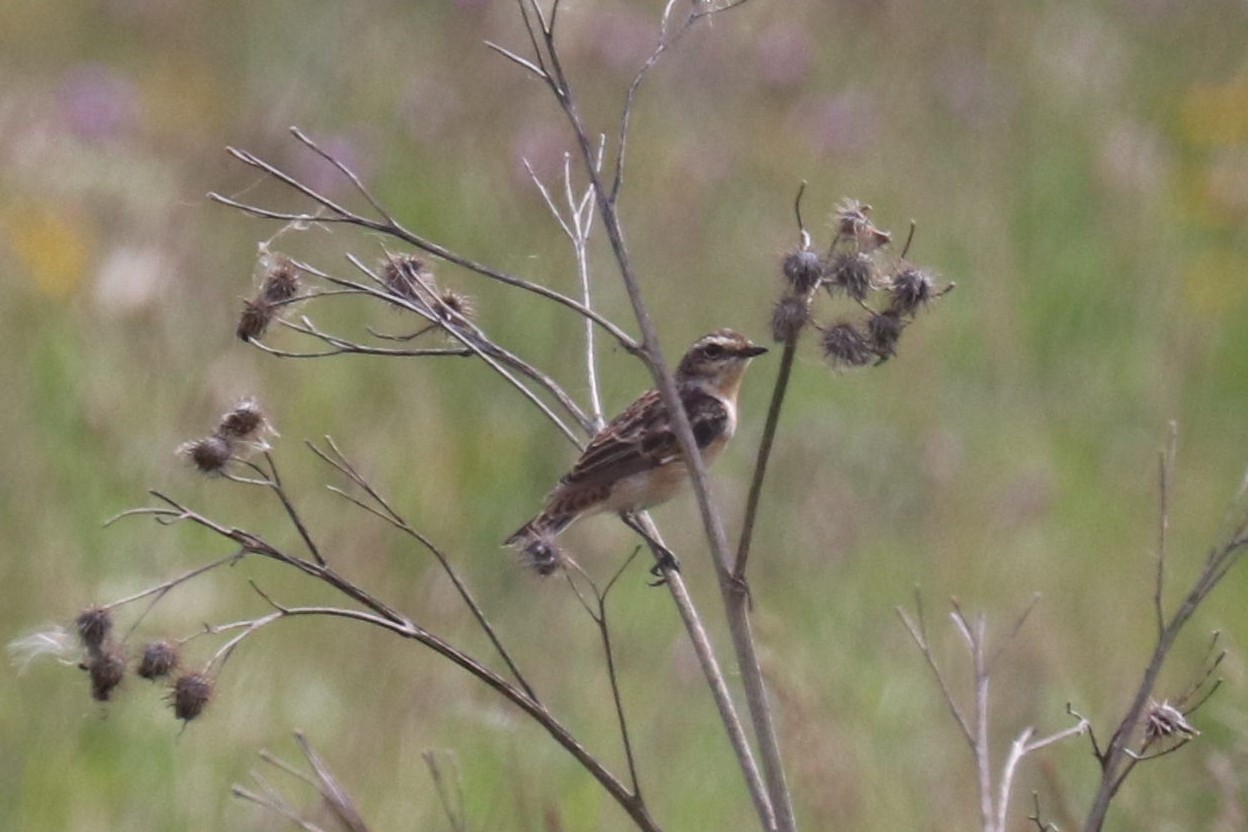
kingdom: Animalia
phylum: Chordata
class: Aves
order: Passeriformes
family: Muscicapidae
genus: Saxicola
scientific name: Saxicola rubetra
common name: Whinchat
